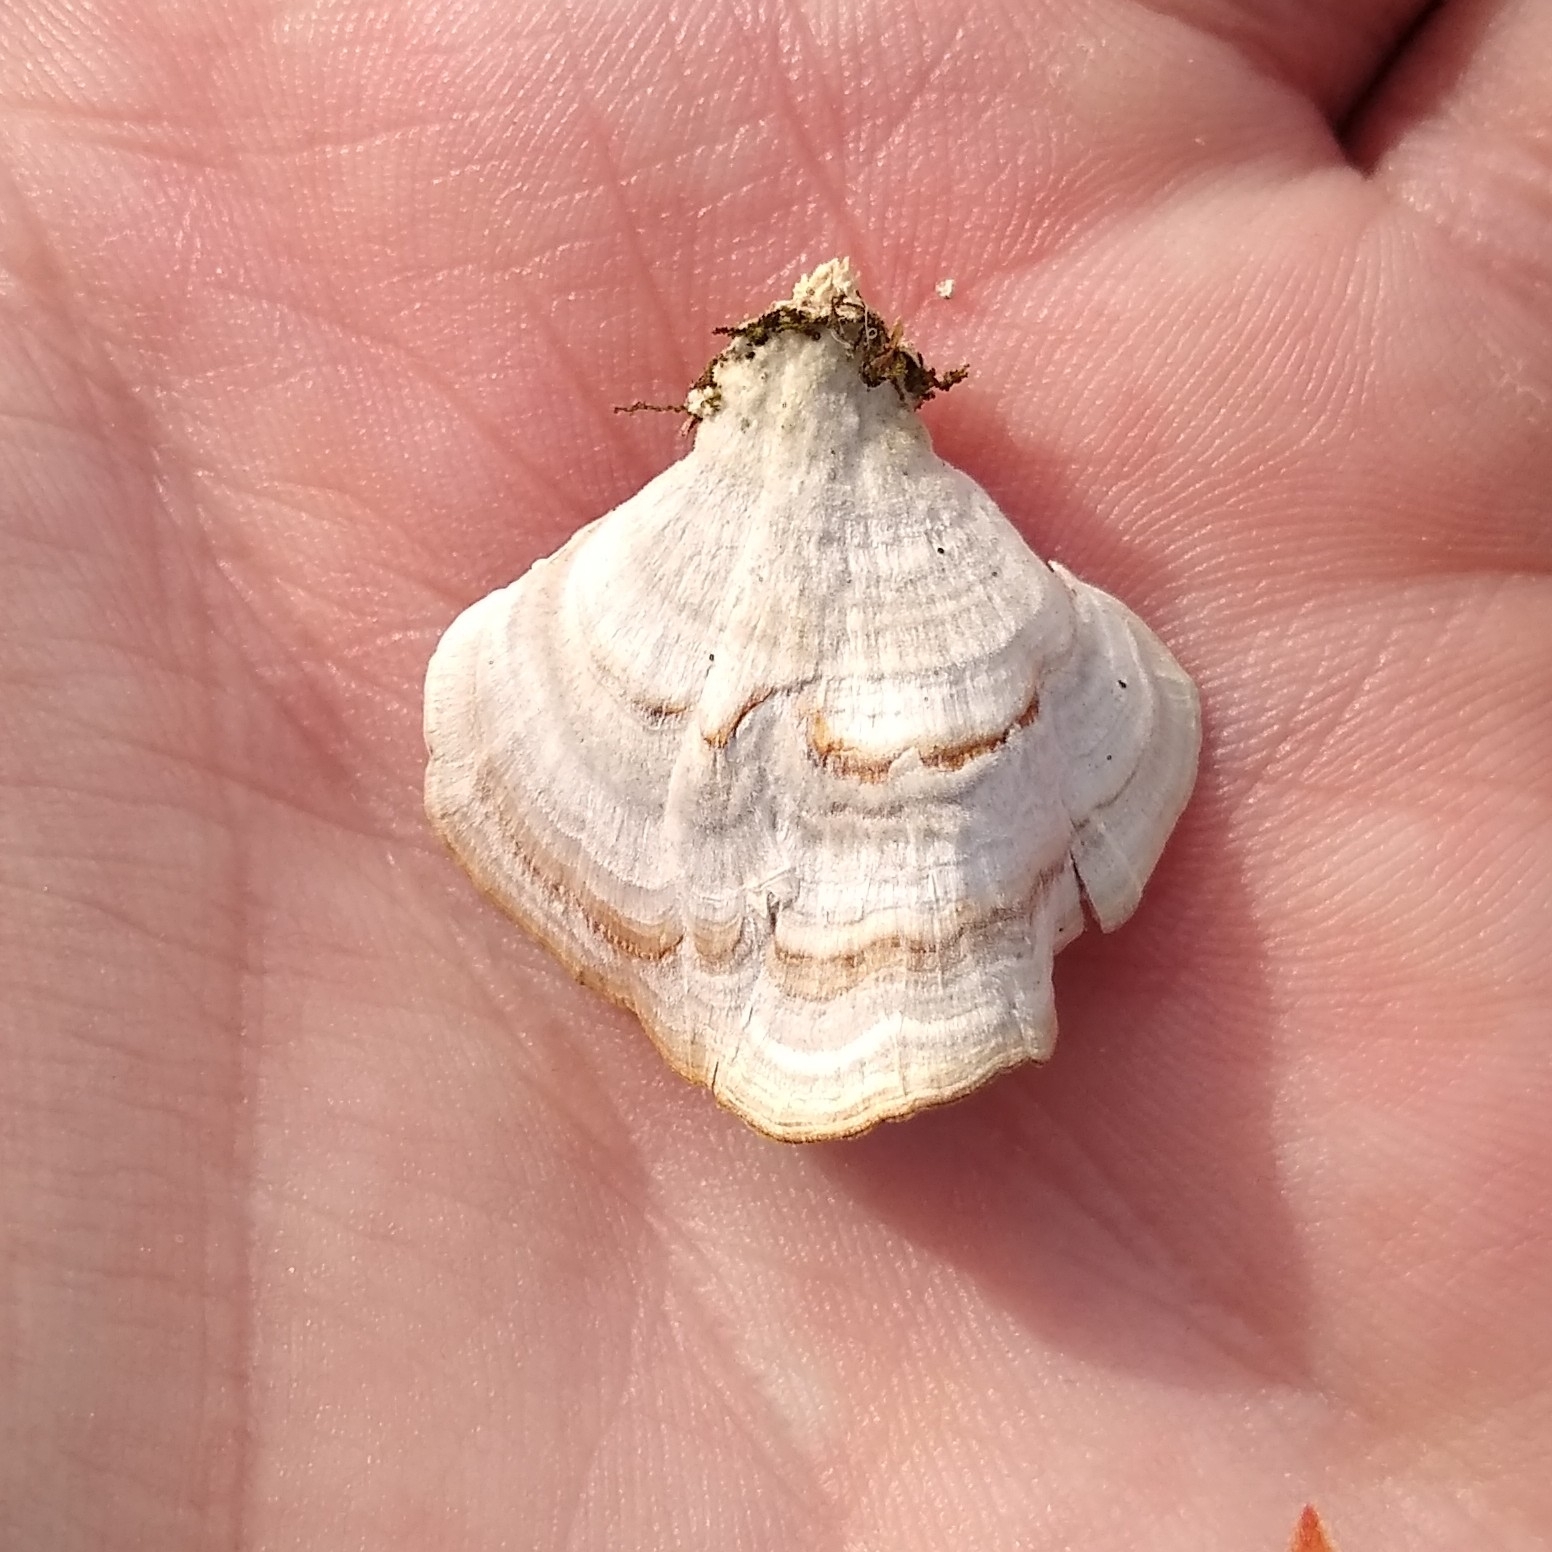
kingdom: Fungi
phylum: Basidiomycota
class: Agaricomycetes
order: Hymenochaetales
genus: Trichaptum
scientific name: Trichaptum biforme
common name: Violet-toothed polypore
